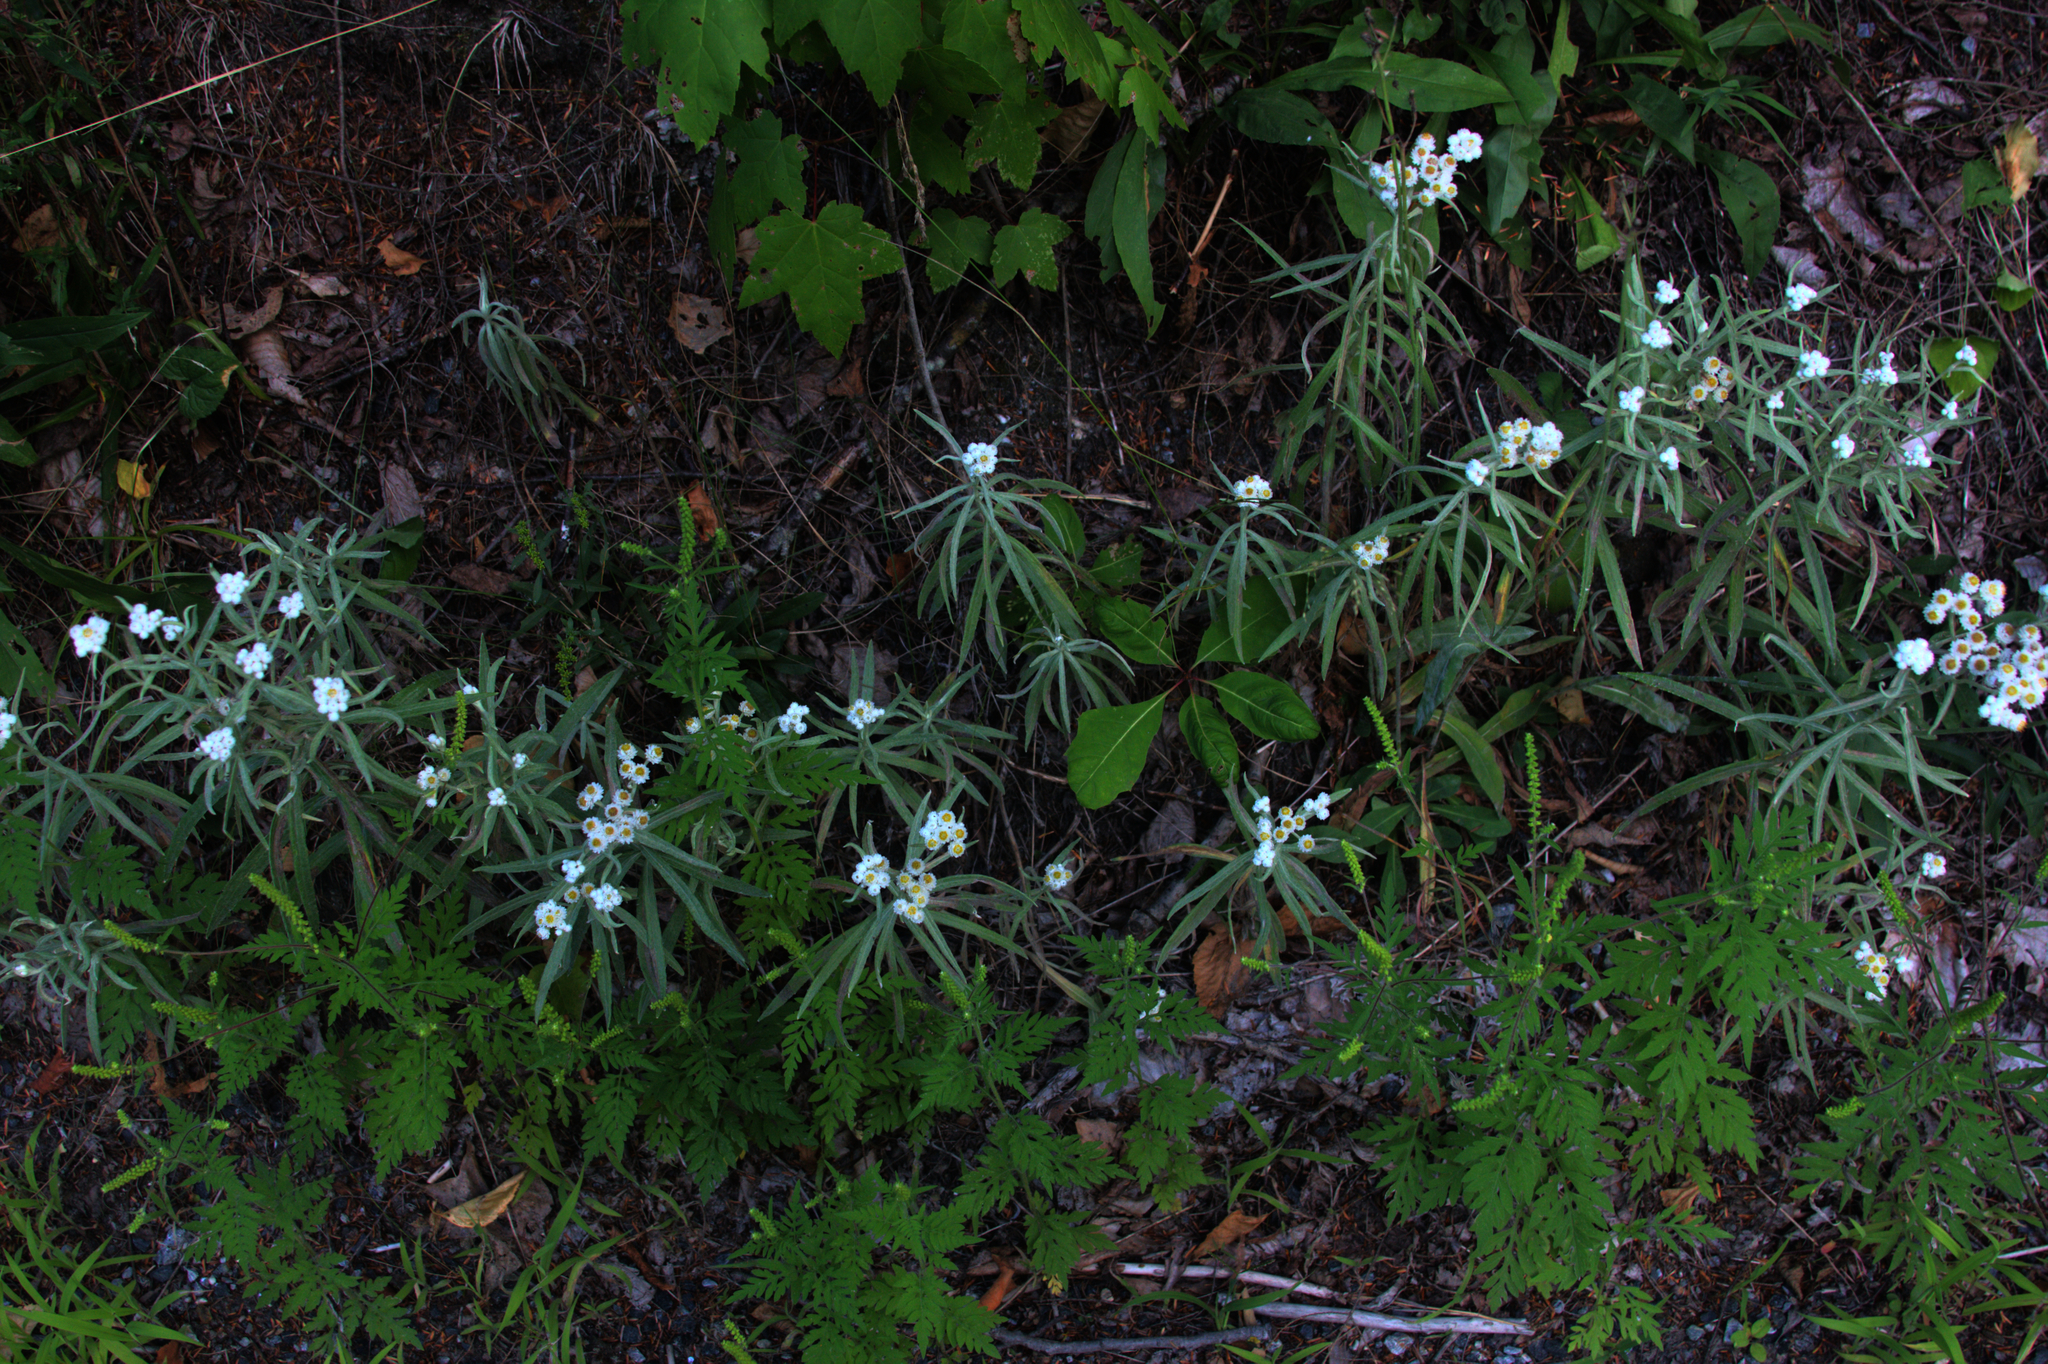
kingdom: Plantae
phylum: Tracheophyta
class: Magnoliopsida
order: Asterales
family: Asteraceae
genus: Anaphalis
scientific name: Anaphalis margaritacea
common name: Pearly everlasting
